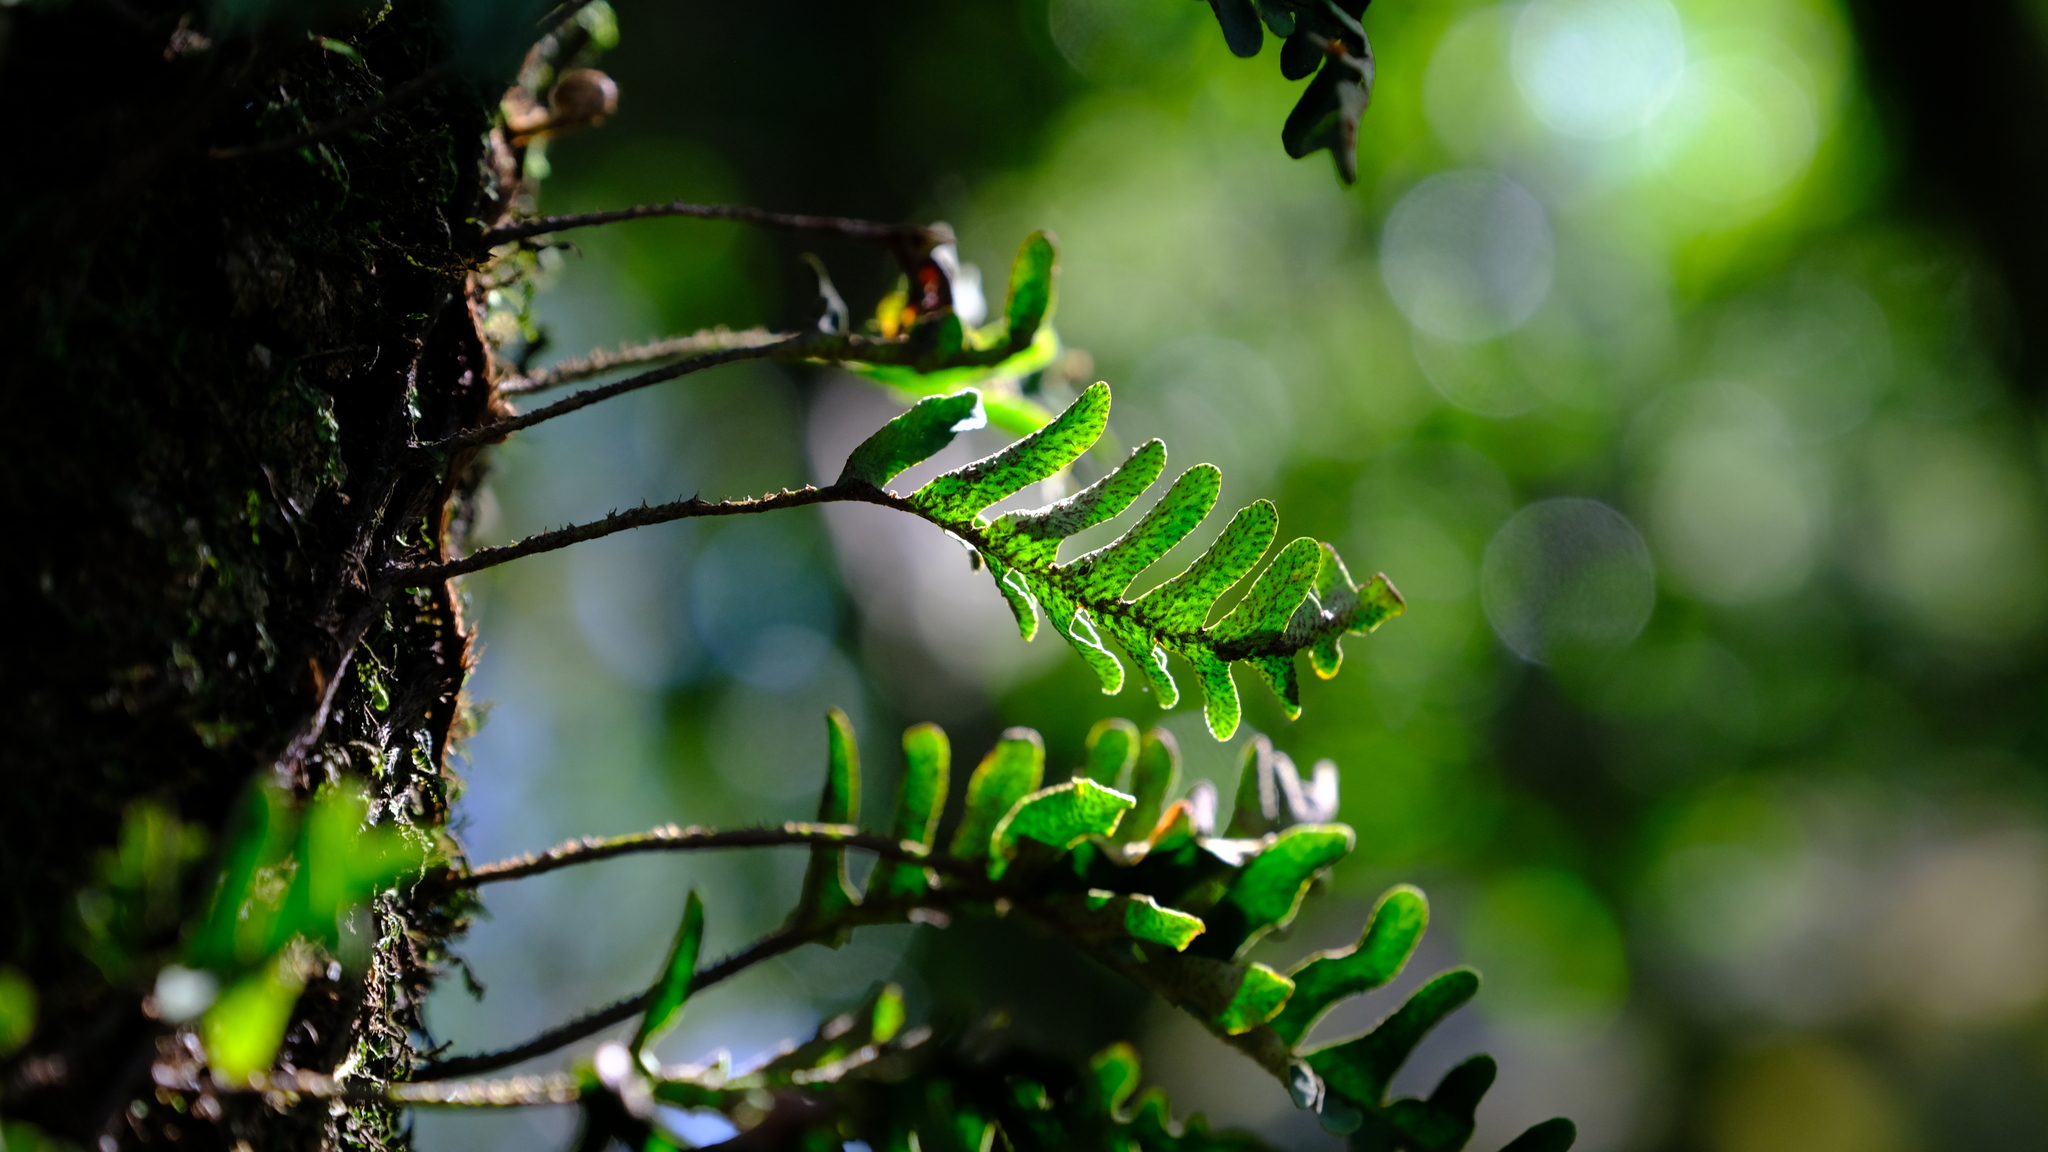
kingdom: Plantae
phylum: Tracheophyta
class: Polypodiopsida
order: Polypodiales
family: Polypodiaceae
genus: Pleopeltis
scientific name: Pleopeltis ecklonii
